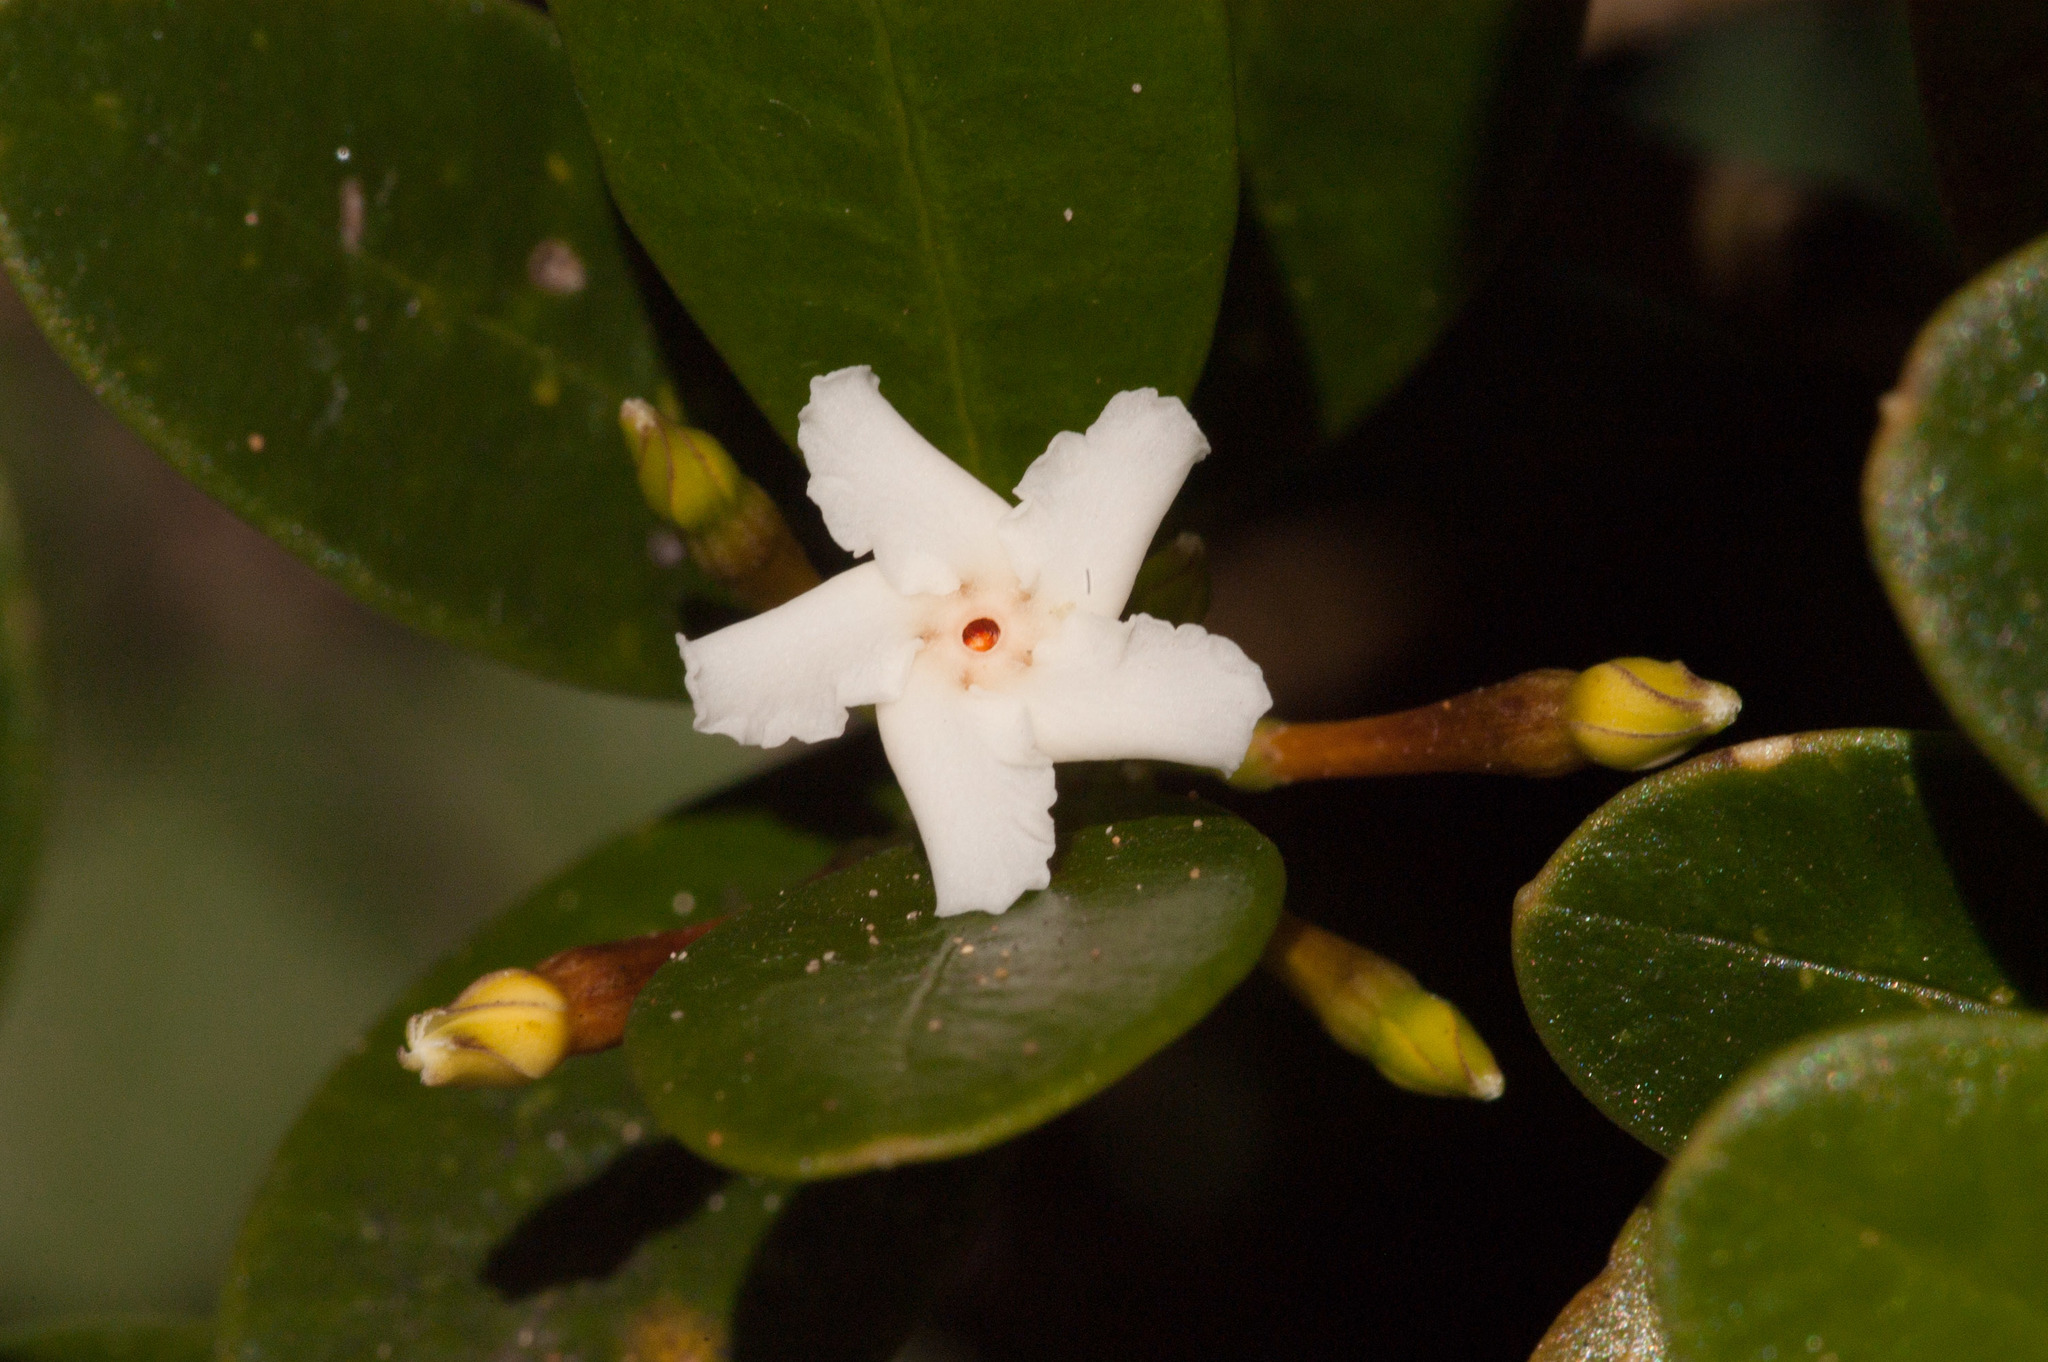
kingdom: Plantae
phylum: Tracheophyta
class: Magnoliopsida
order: Gentianales
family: Apocynaceae
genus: Alyxia
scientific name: Alyxia buxifolia
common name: Dysentery-bush
